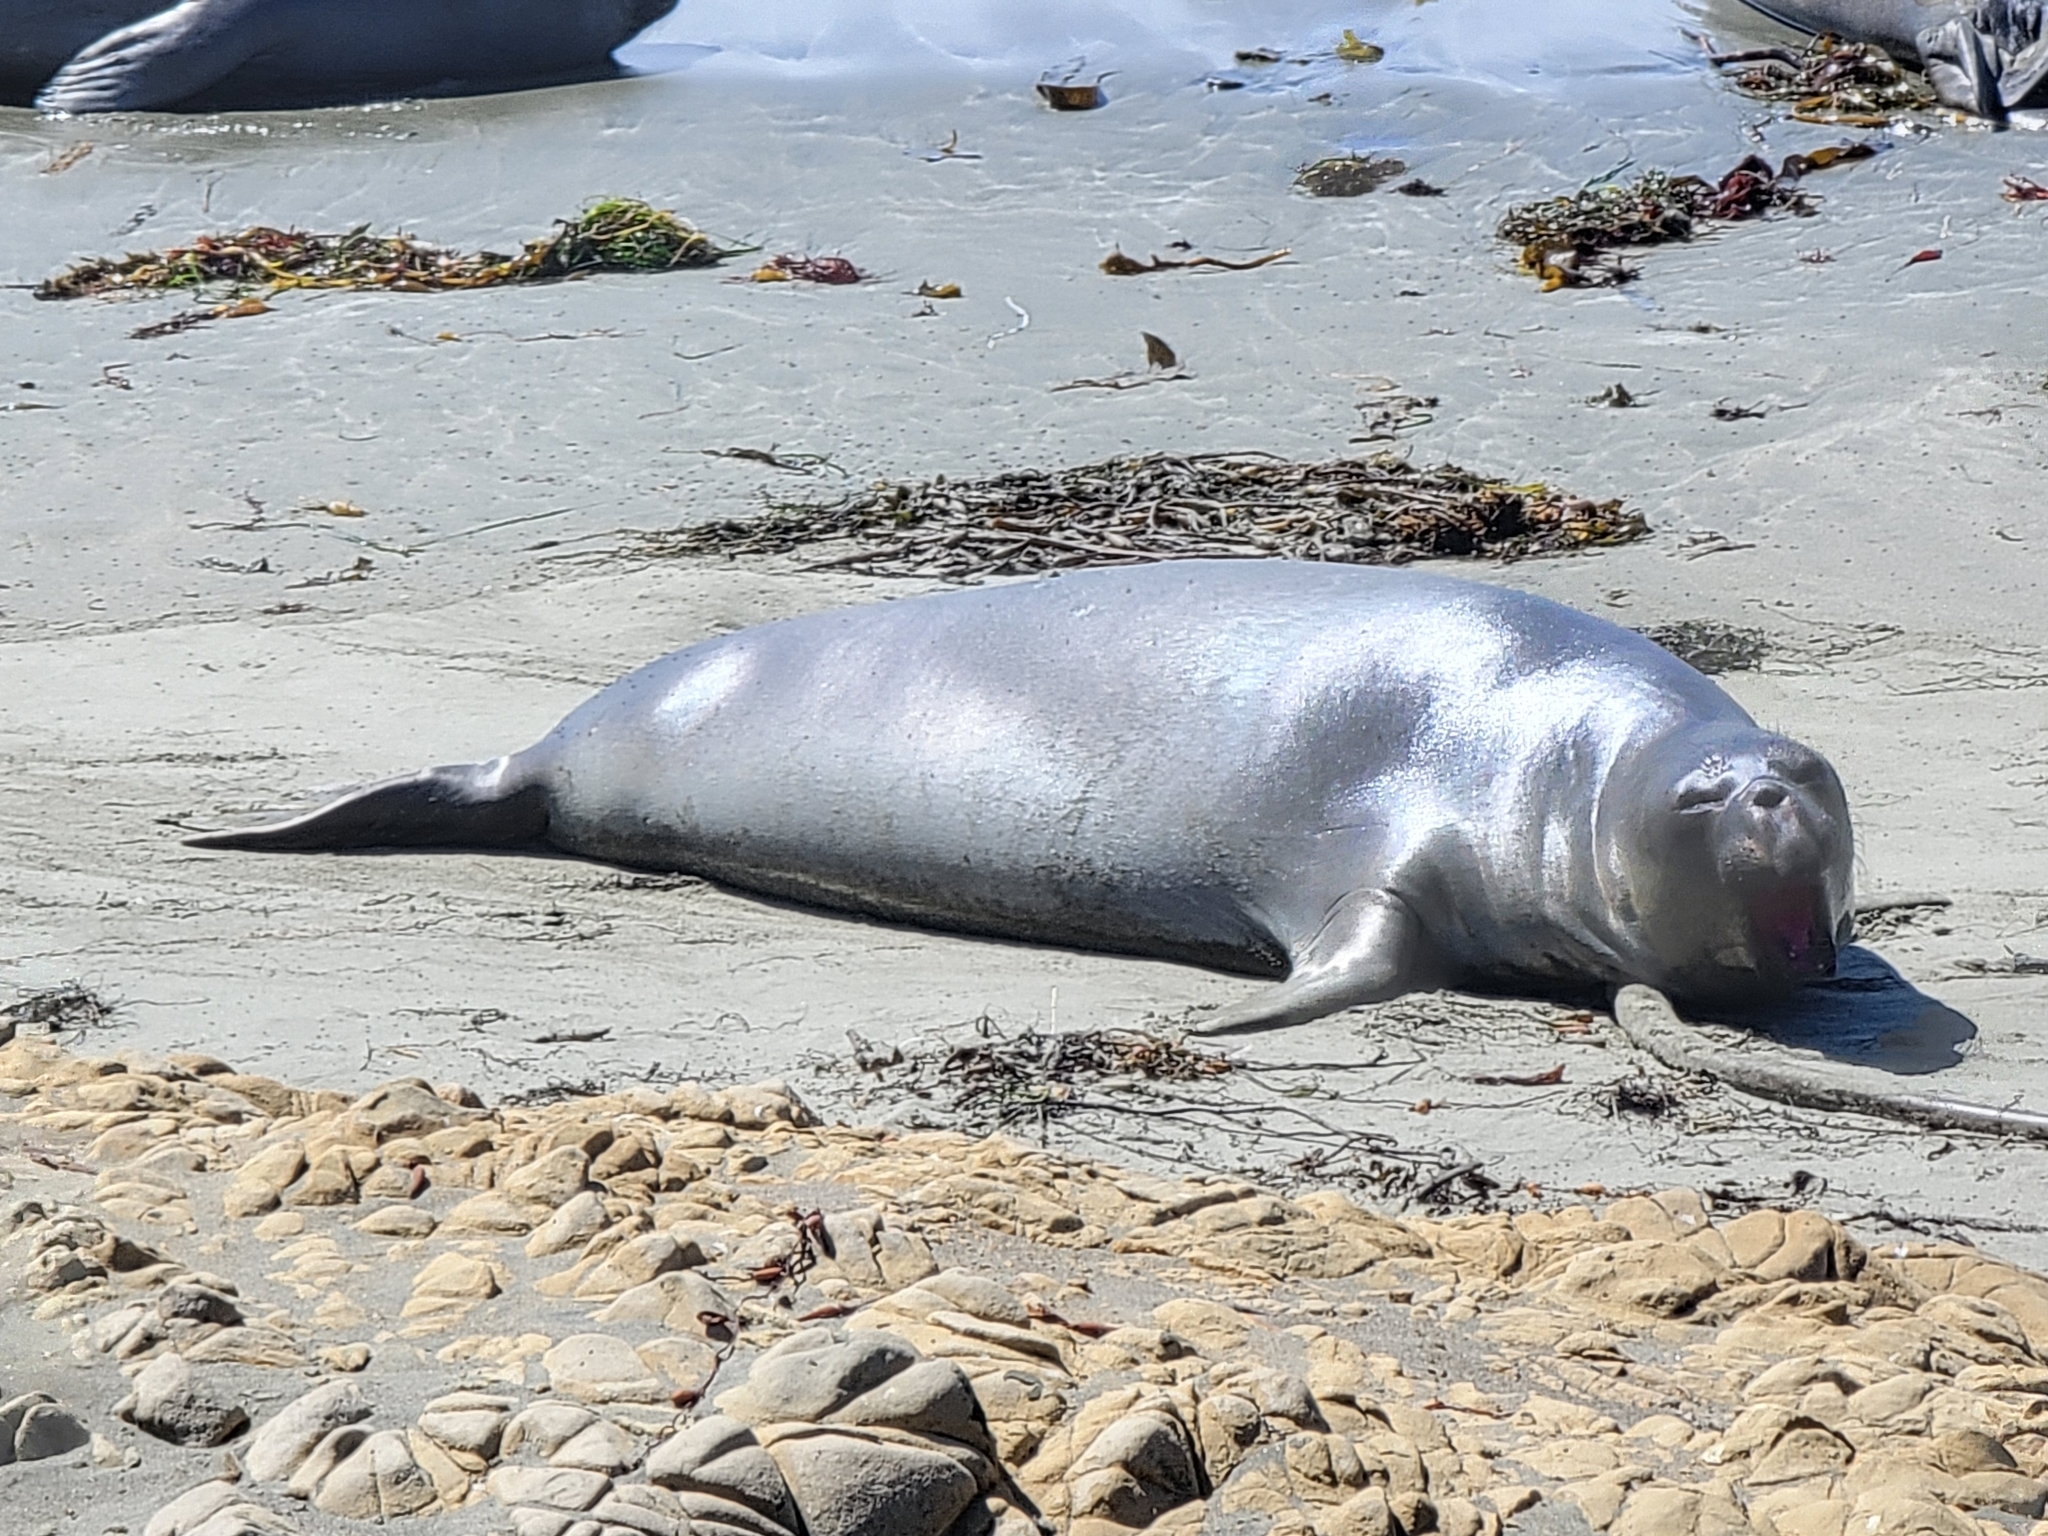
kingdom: Animalia
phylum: Chordata
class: Mammalia
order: Carnivora
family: Phocidae
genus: Mirounga
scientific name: Mirounga angustirostris
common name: Northern elephant seal
